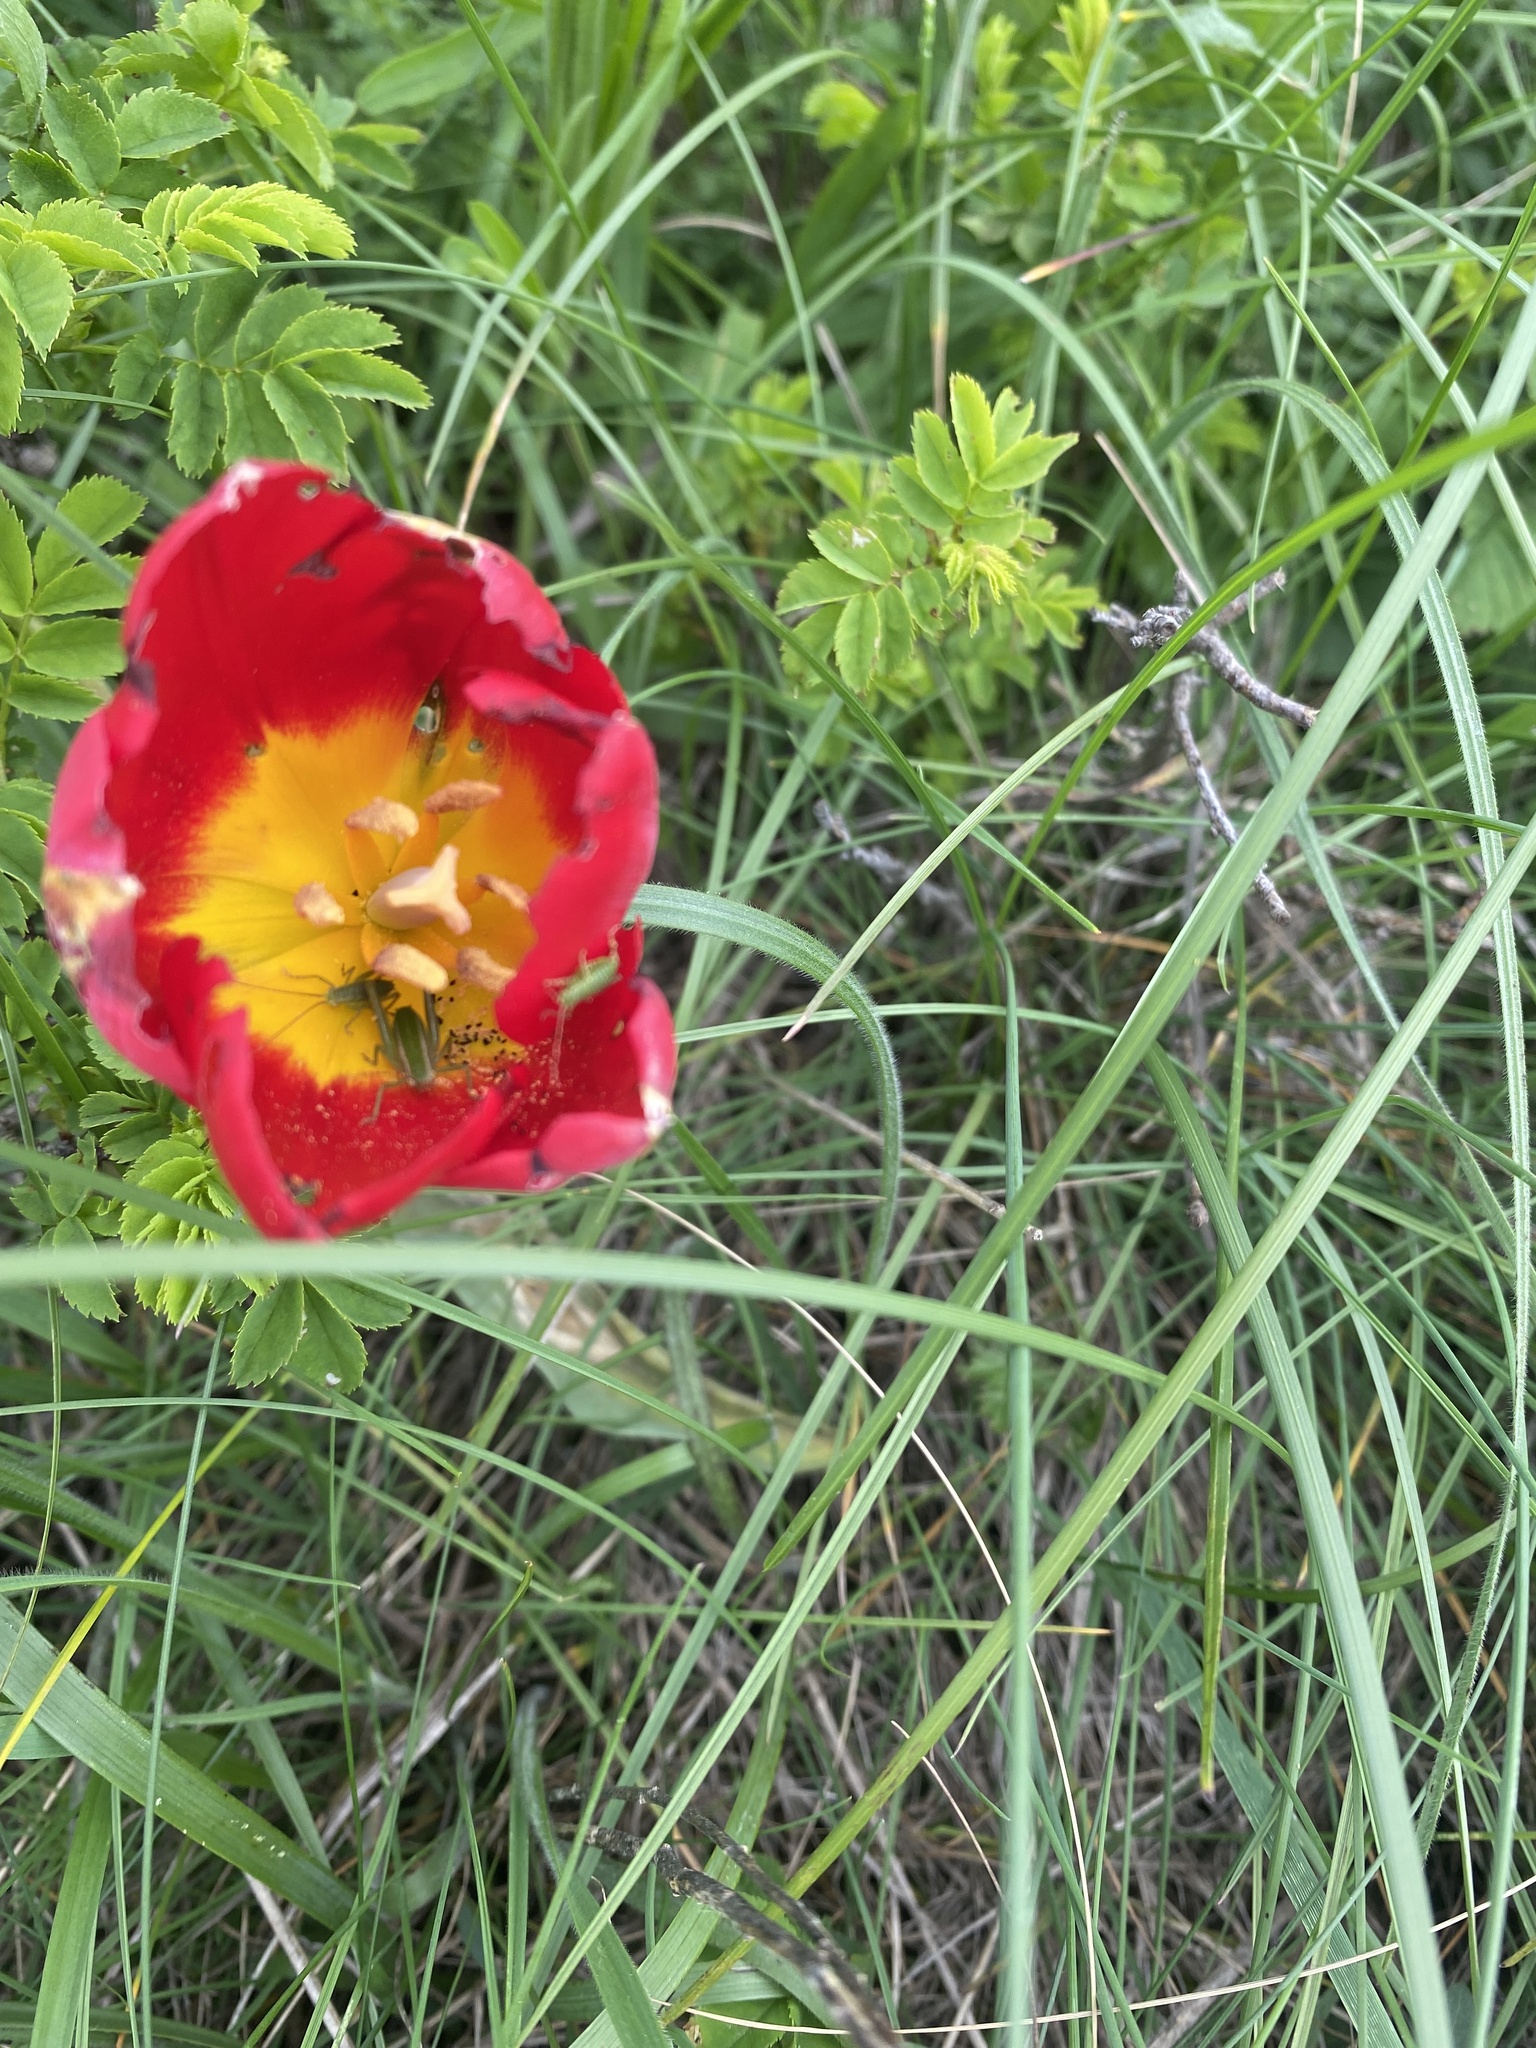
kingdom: Plantae
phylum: Tracheophyta
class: Liliopsida
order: Liliales
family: Liliaceae
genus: Tulipa
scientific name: Tulipa suaveolens
